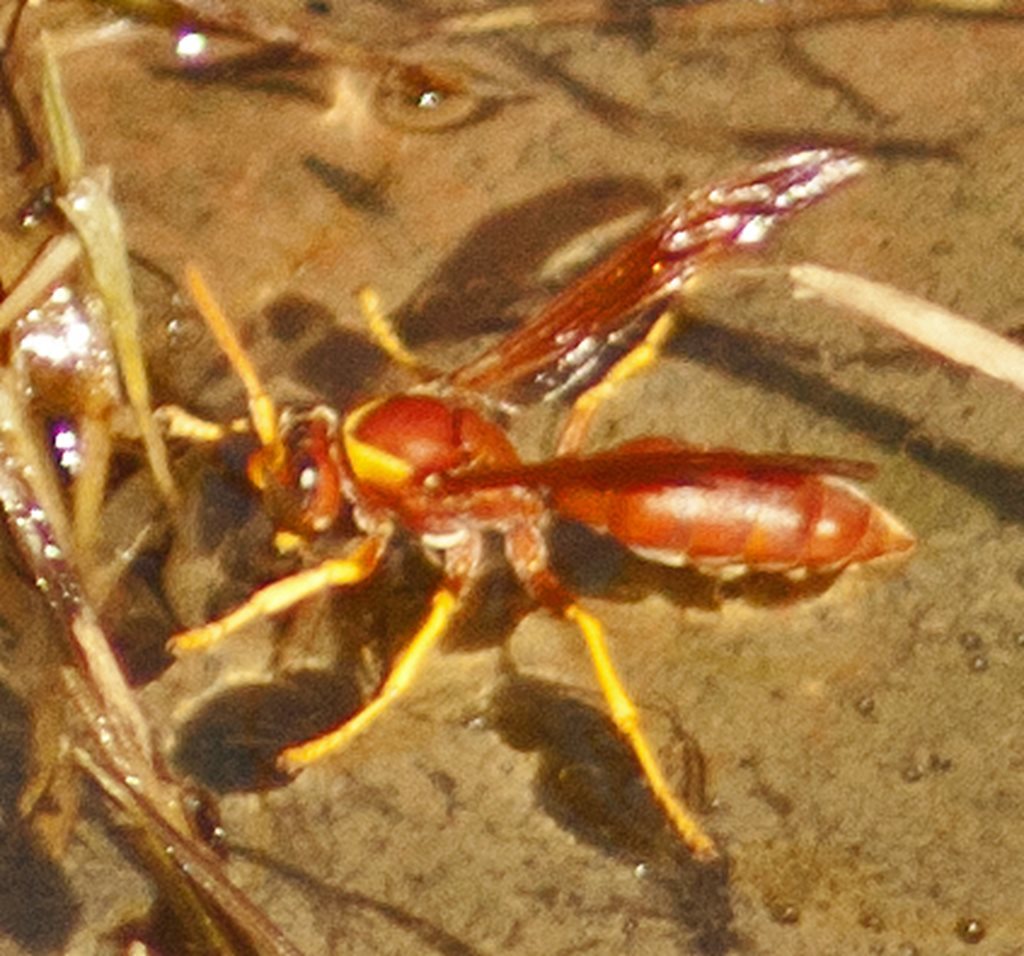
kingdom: Animalia
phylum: Arthropoda
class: Insecta
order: Hymenoptera
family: Eumenidae
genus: Polistes
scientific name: Polistes schach
